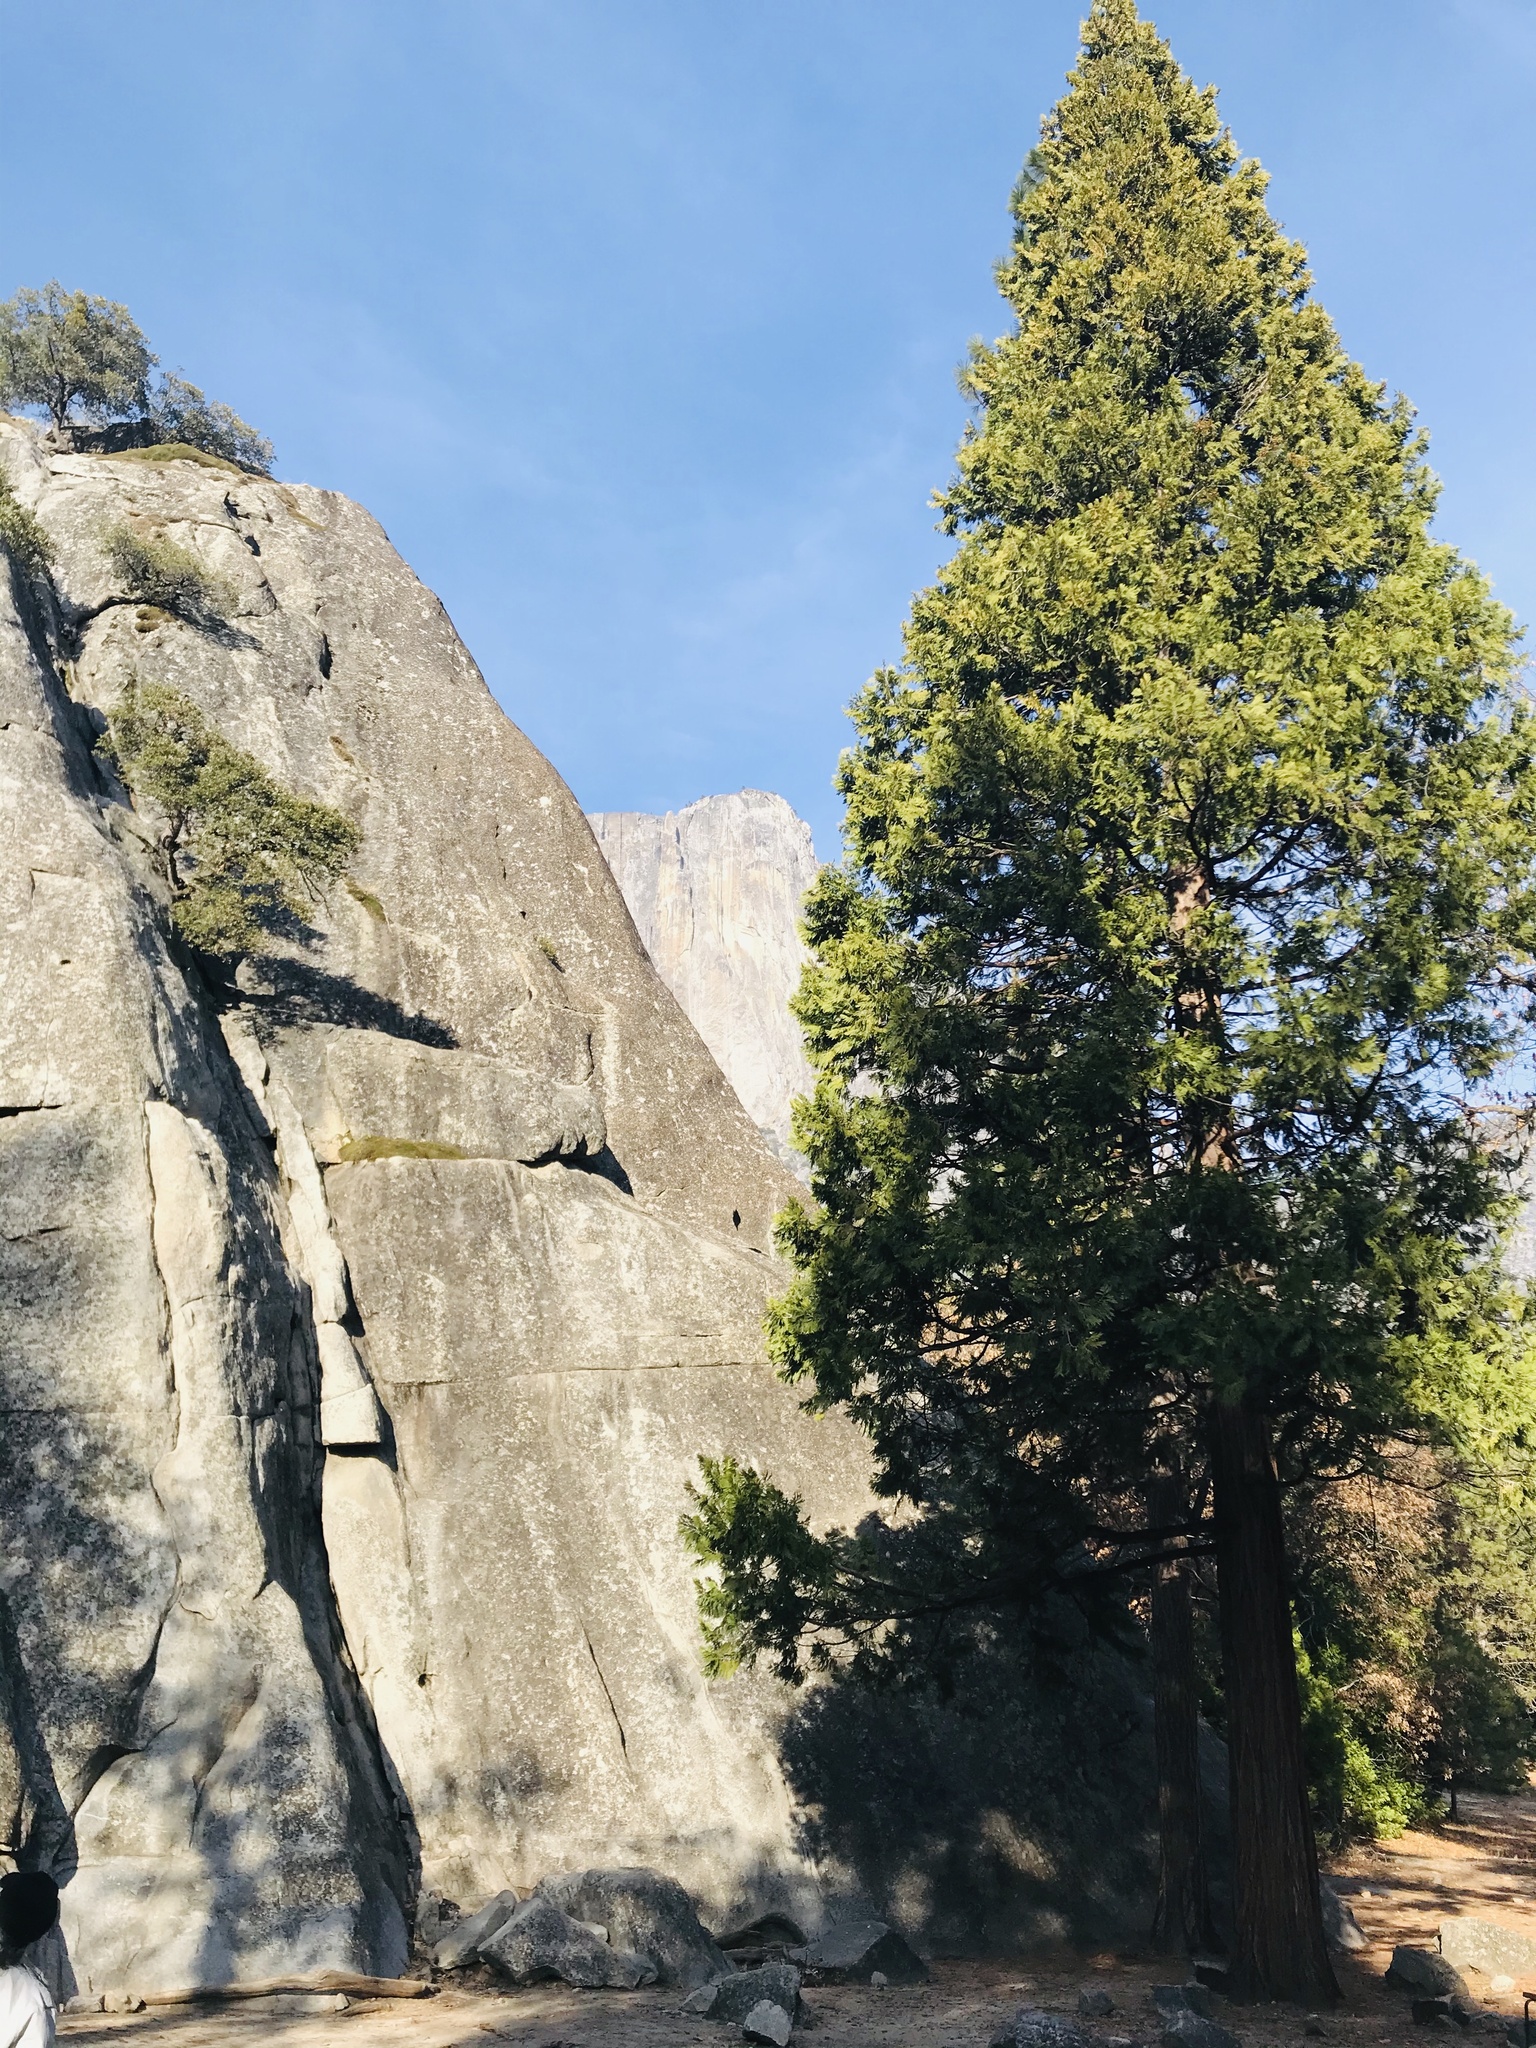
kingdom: Plantae
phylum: Tracheophyta
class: Pinopsida
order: Pinales
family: Cupressaceae
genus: Calocedrus
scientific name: Calocedrus decurrens
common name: Californian incense-cedar
